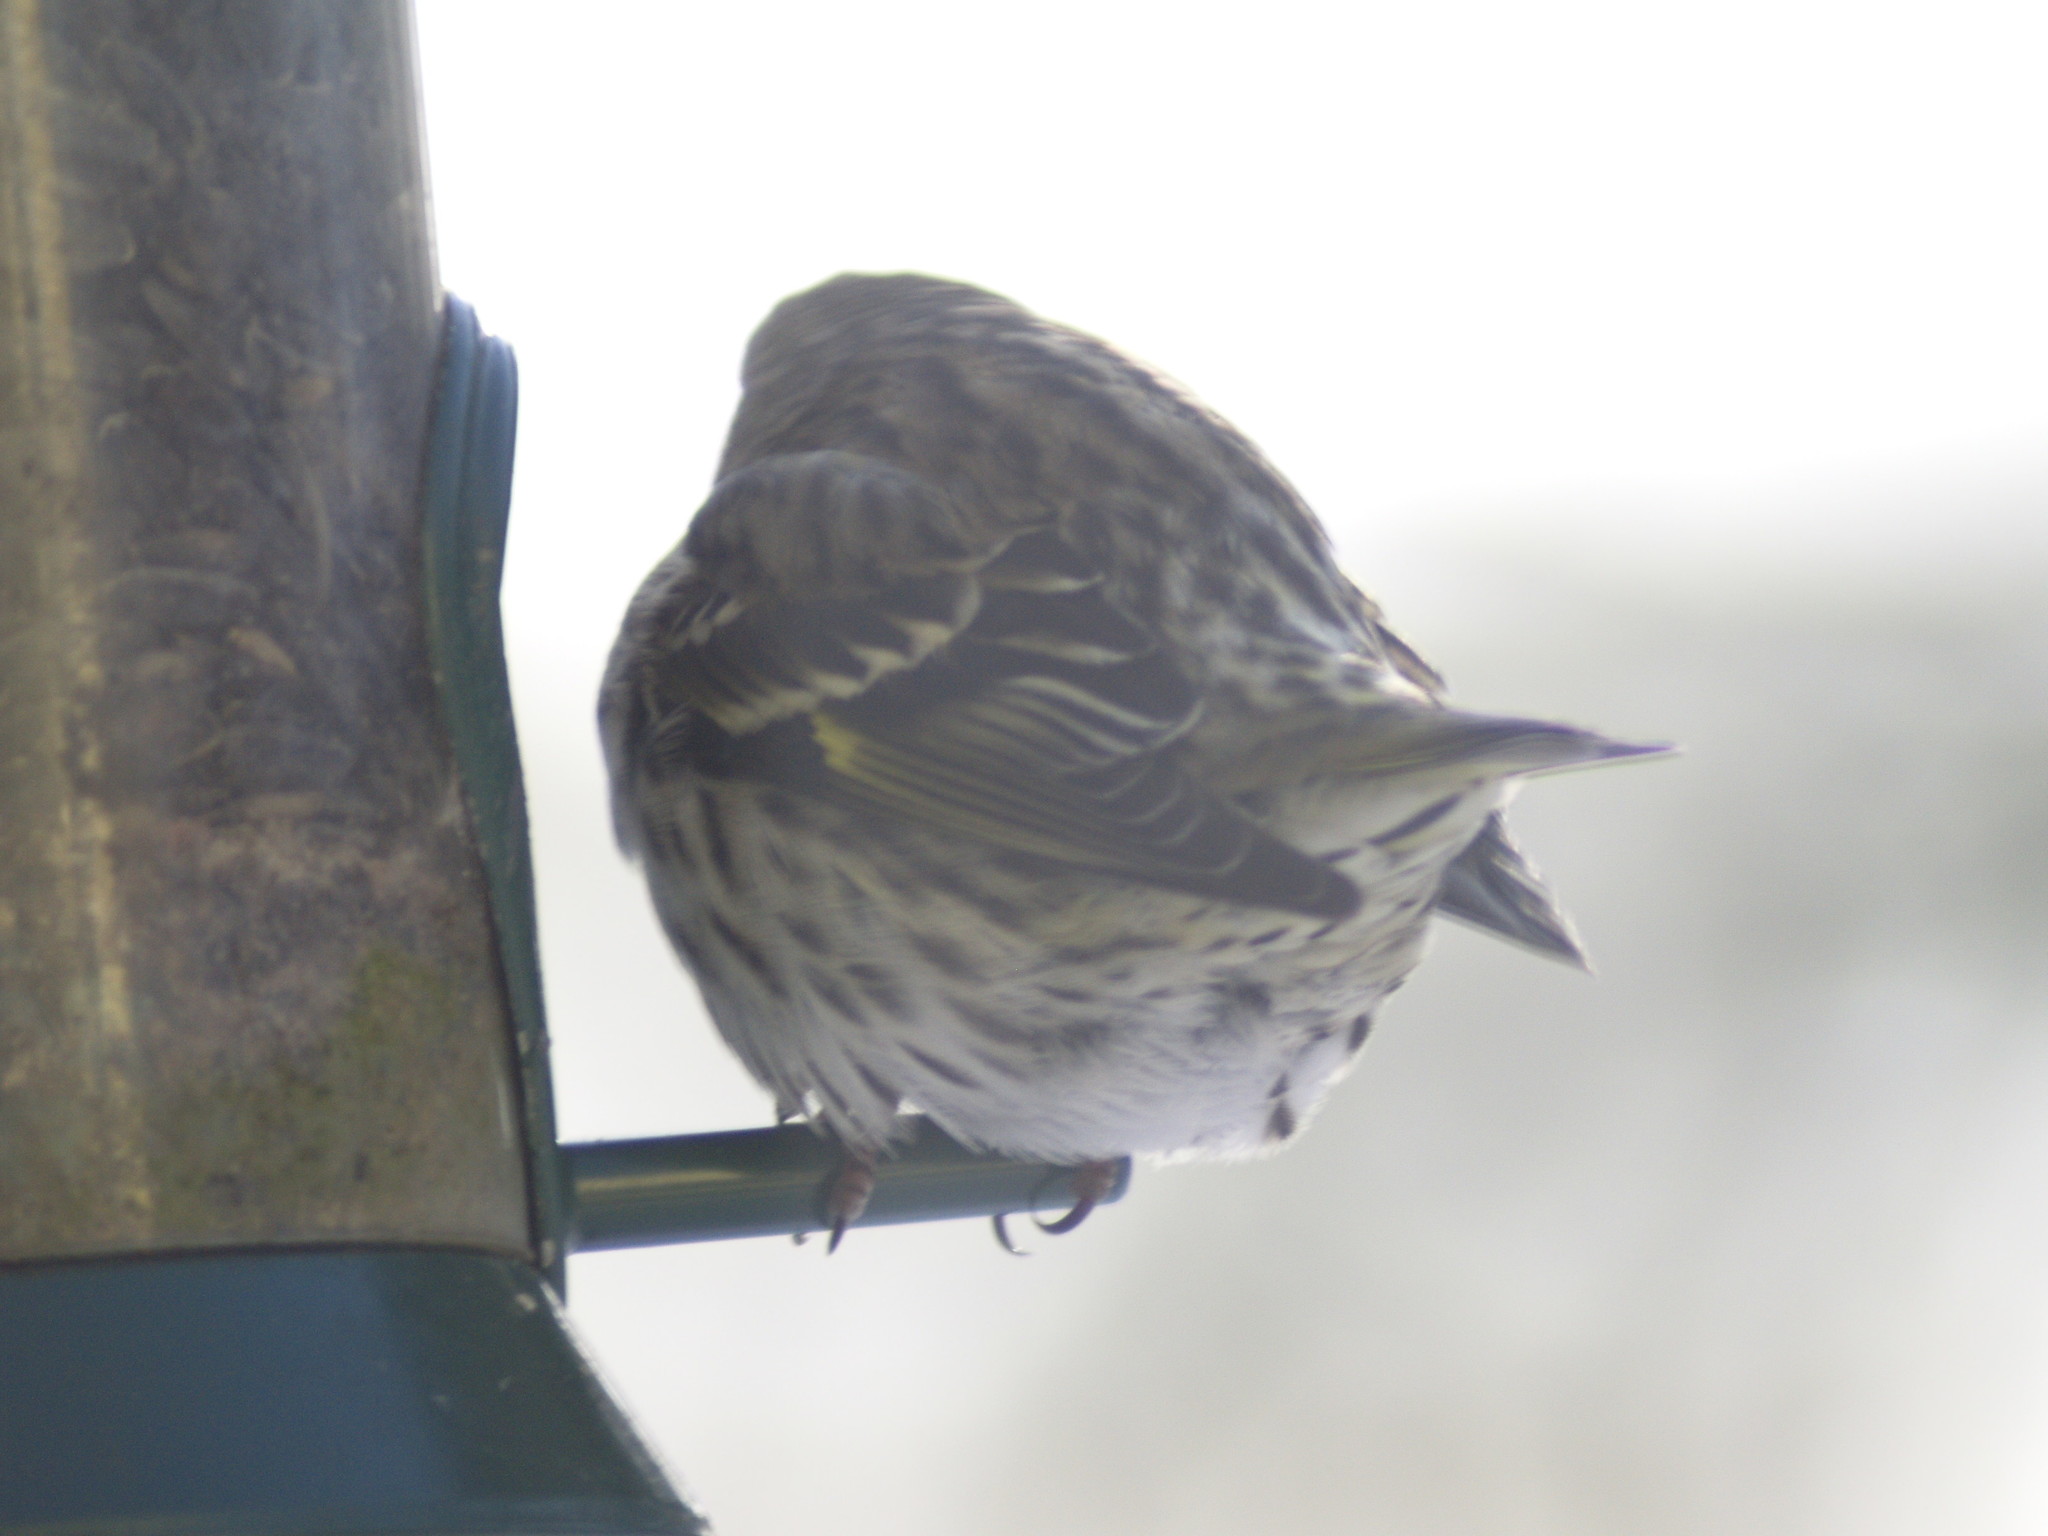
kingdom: Animalia
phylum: Chordata
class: Aves
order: Passeriformes
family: Fringillidae
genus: Spinus
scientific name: Spinus pinus
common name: Pine siskin
